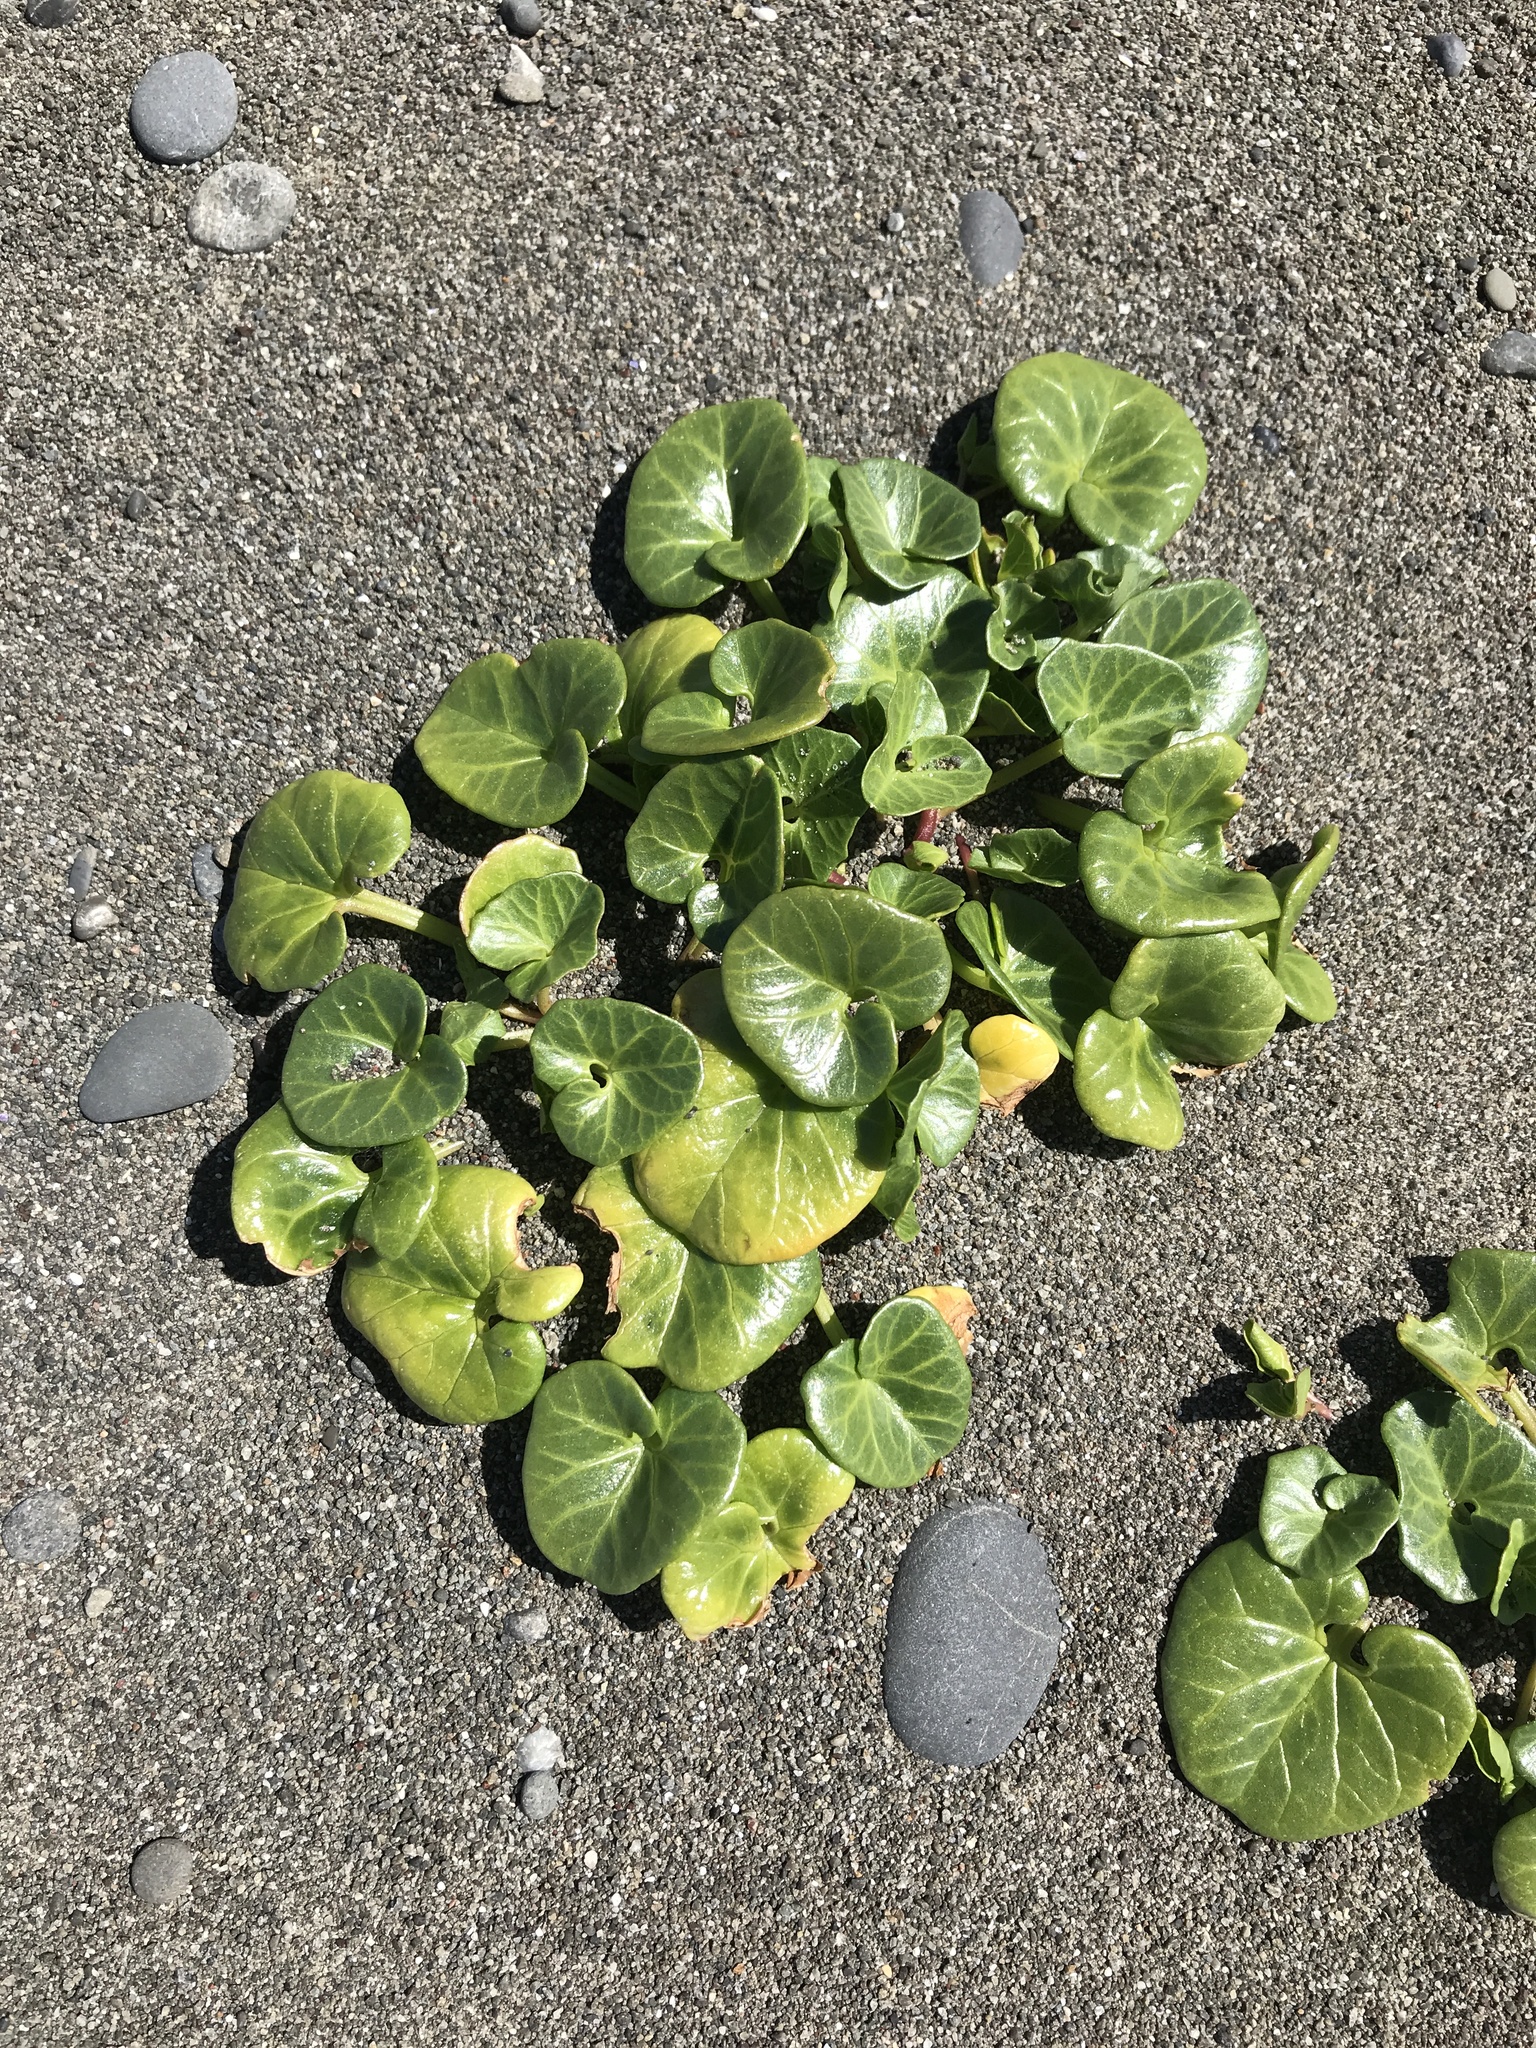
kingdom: Plantae
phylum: Tracheophyta
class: Magnoliopsida
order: Solanales
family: Convolvulaceae
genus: Calystegia
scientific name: Calystegia soldanella
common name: Sea bindweed
